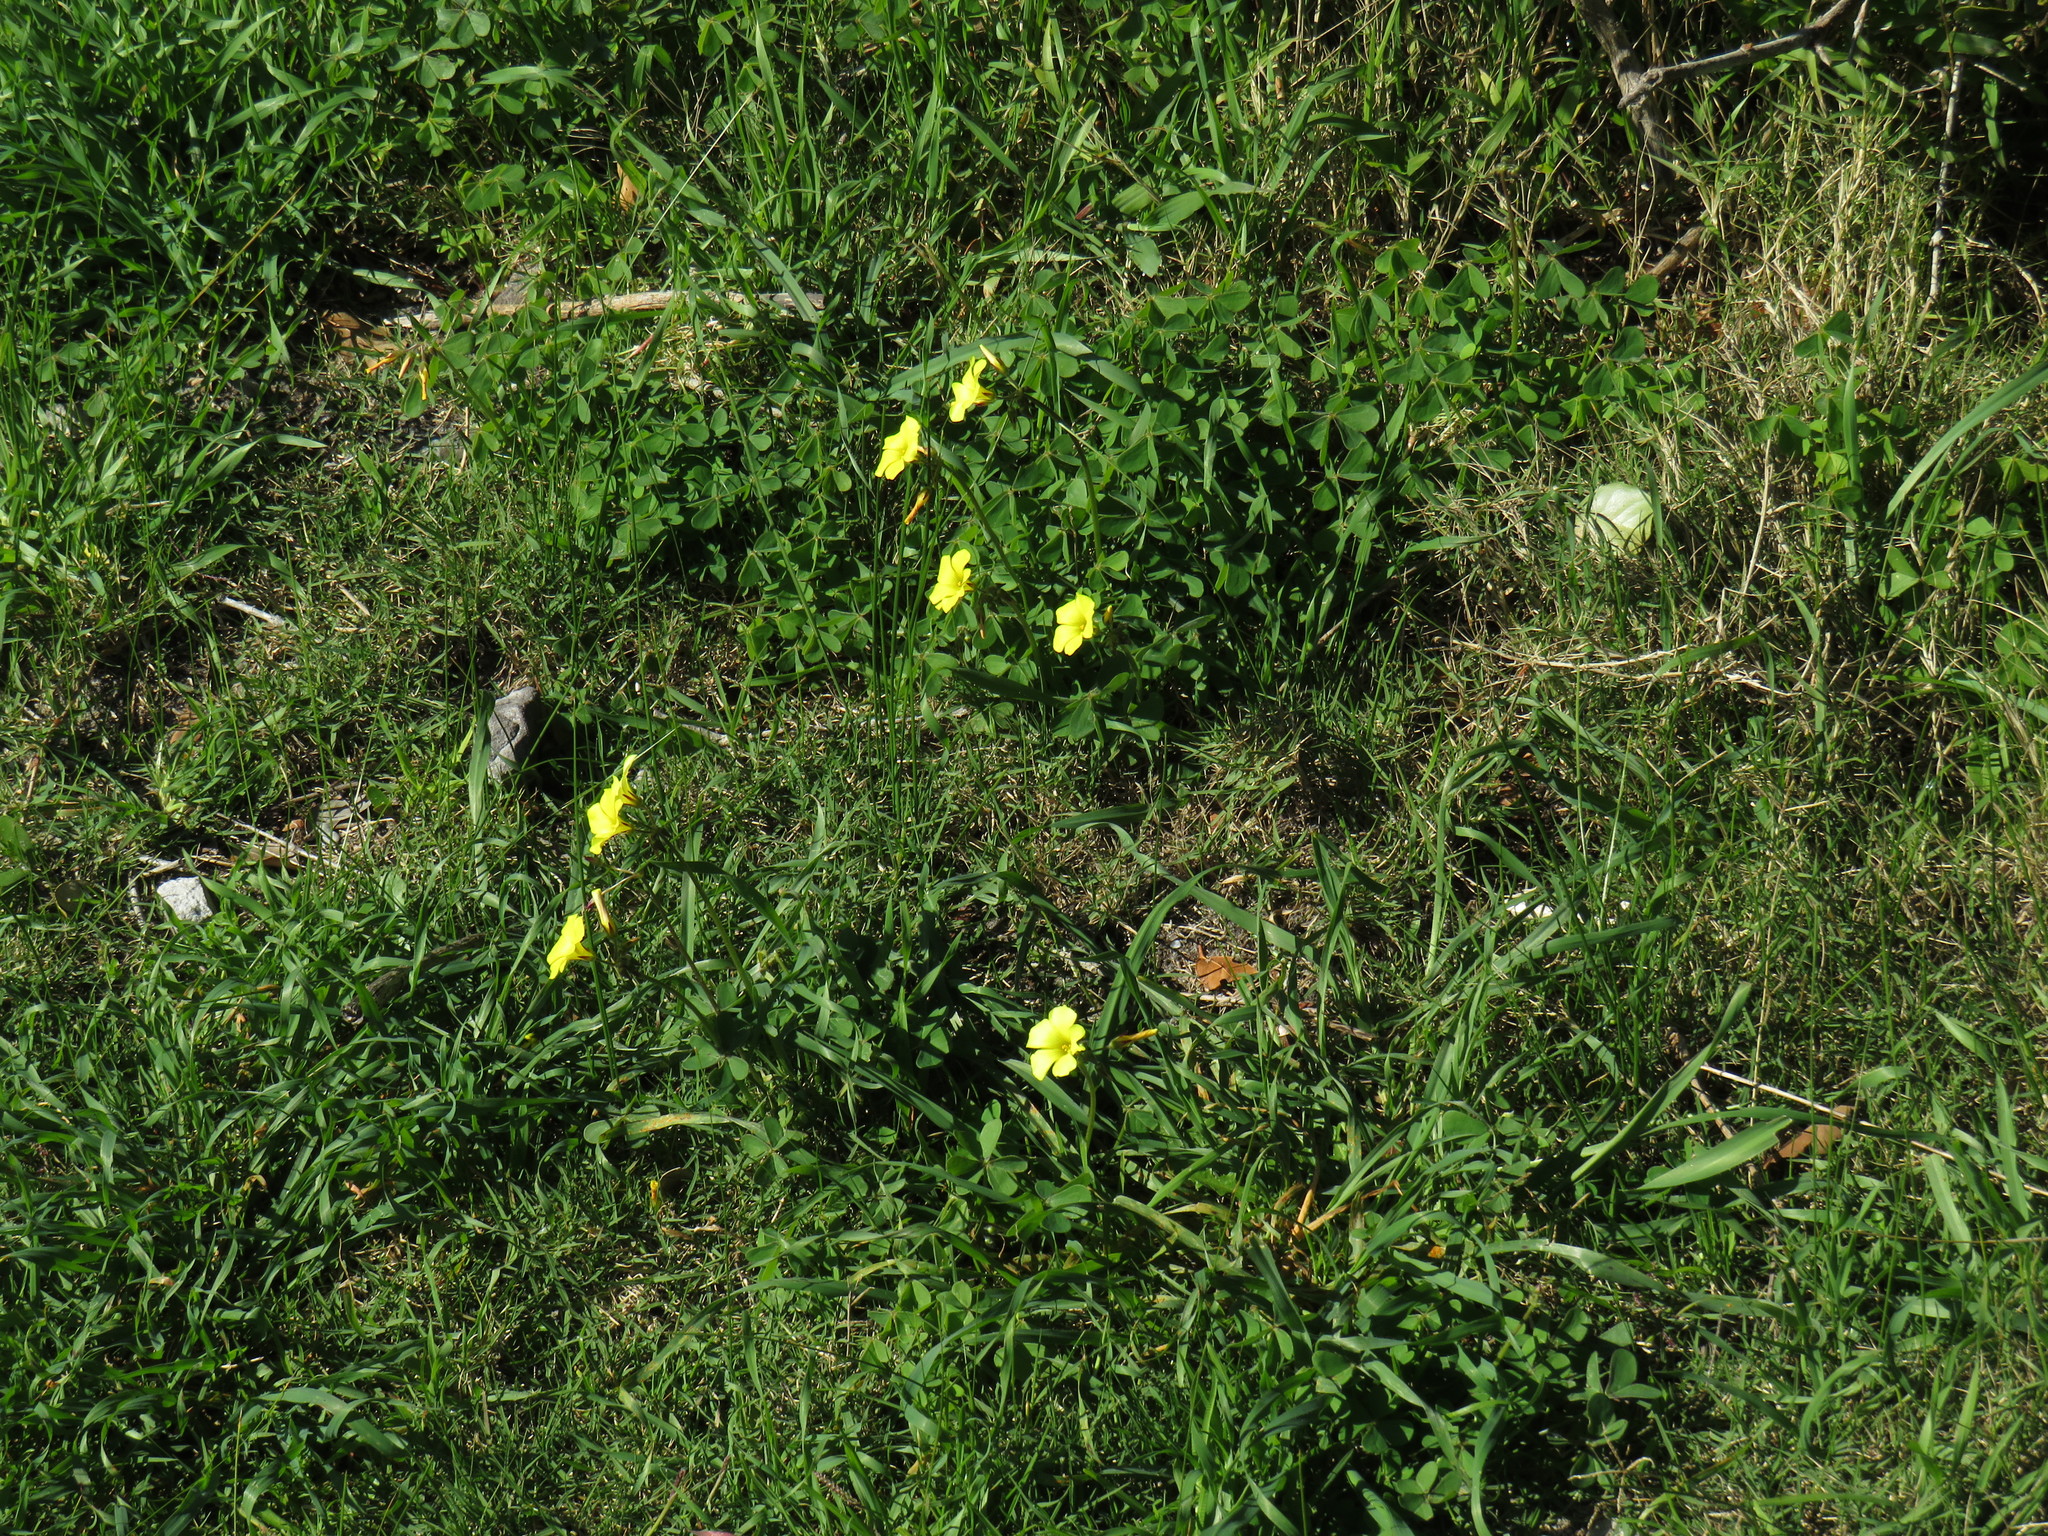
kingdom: Plantae
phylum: Tracheophyta
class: Magnoliopsida
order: Oxalidales
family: Oxalidaceae
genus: Oxalis
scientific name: Oxalis pes-caprae
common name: Bermuda-buttercup
